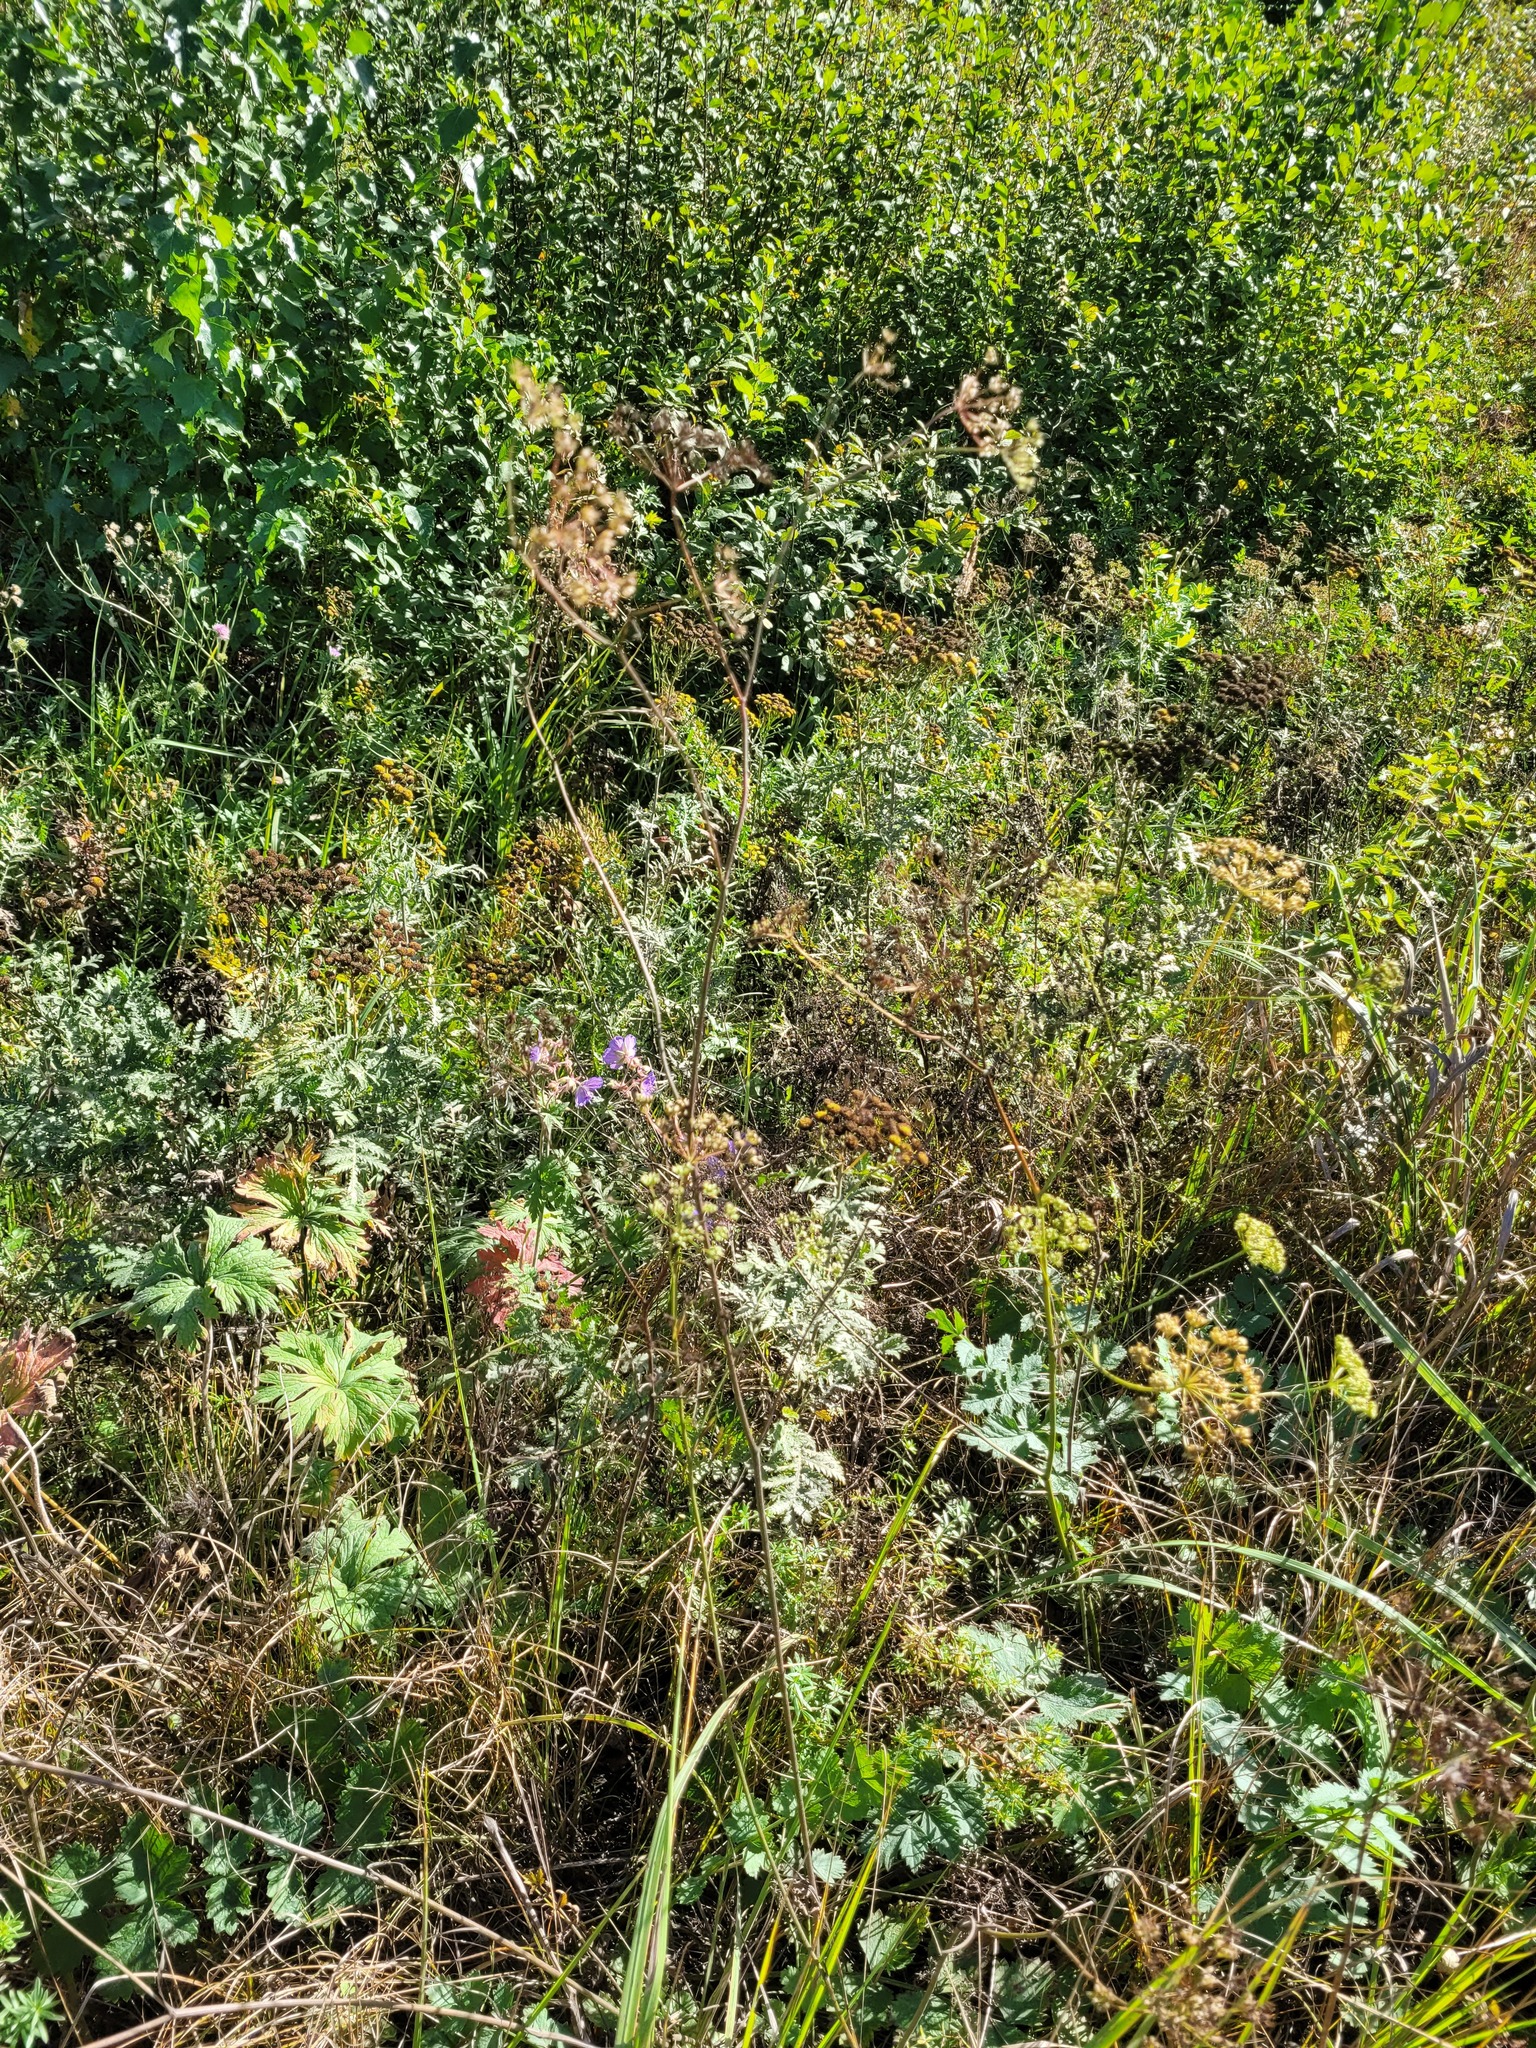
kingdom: Plantae
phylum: Tracheophyta
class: Magnoliopsida
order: Apiales
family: Apiaceae
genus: Pimpinella
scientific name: Pimpinella saxifraga
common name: Burnet-saxifrage
